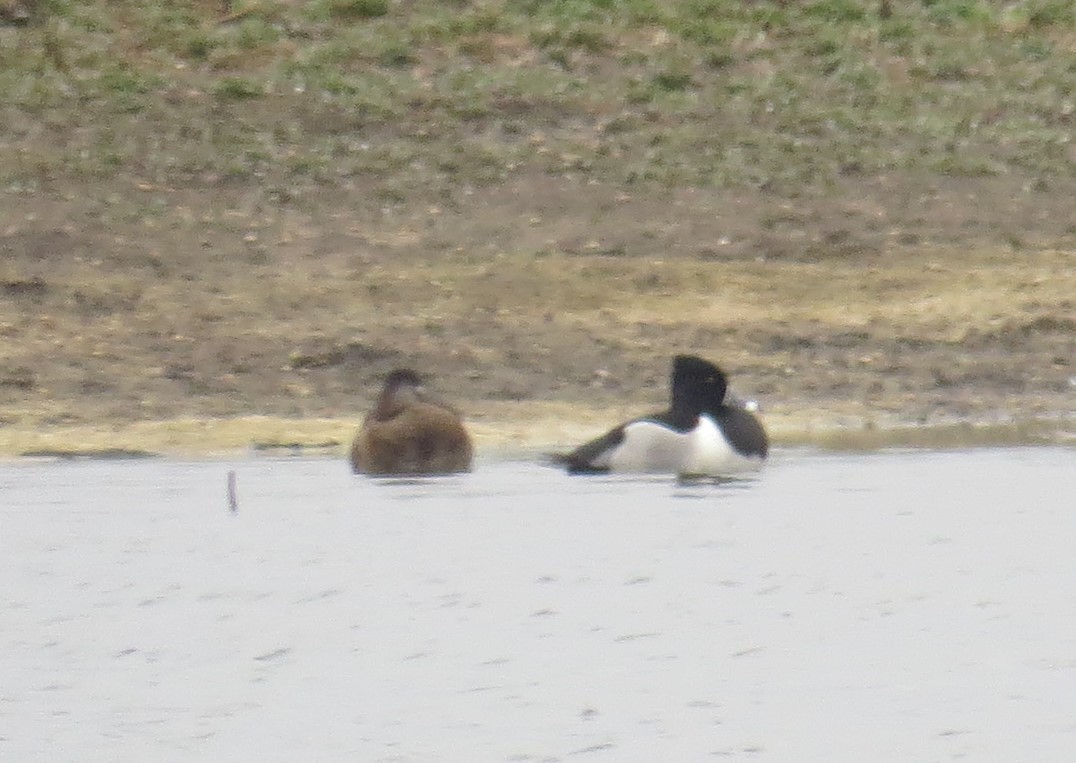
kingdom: Animalia
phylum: Chordata
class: Aves
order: Anseriformes
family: Anatidae
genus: Aythya
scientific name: Aythya collaris
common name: Ring-necked duck
